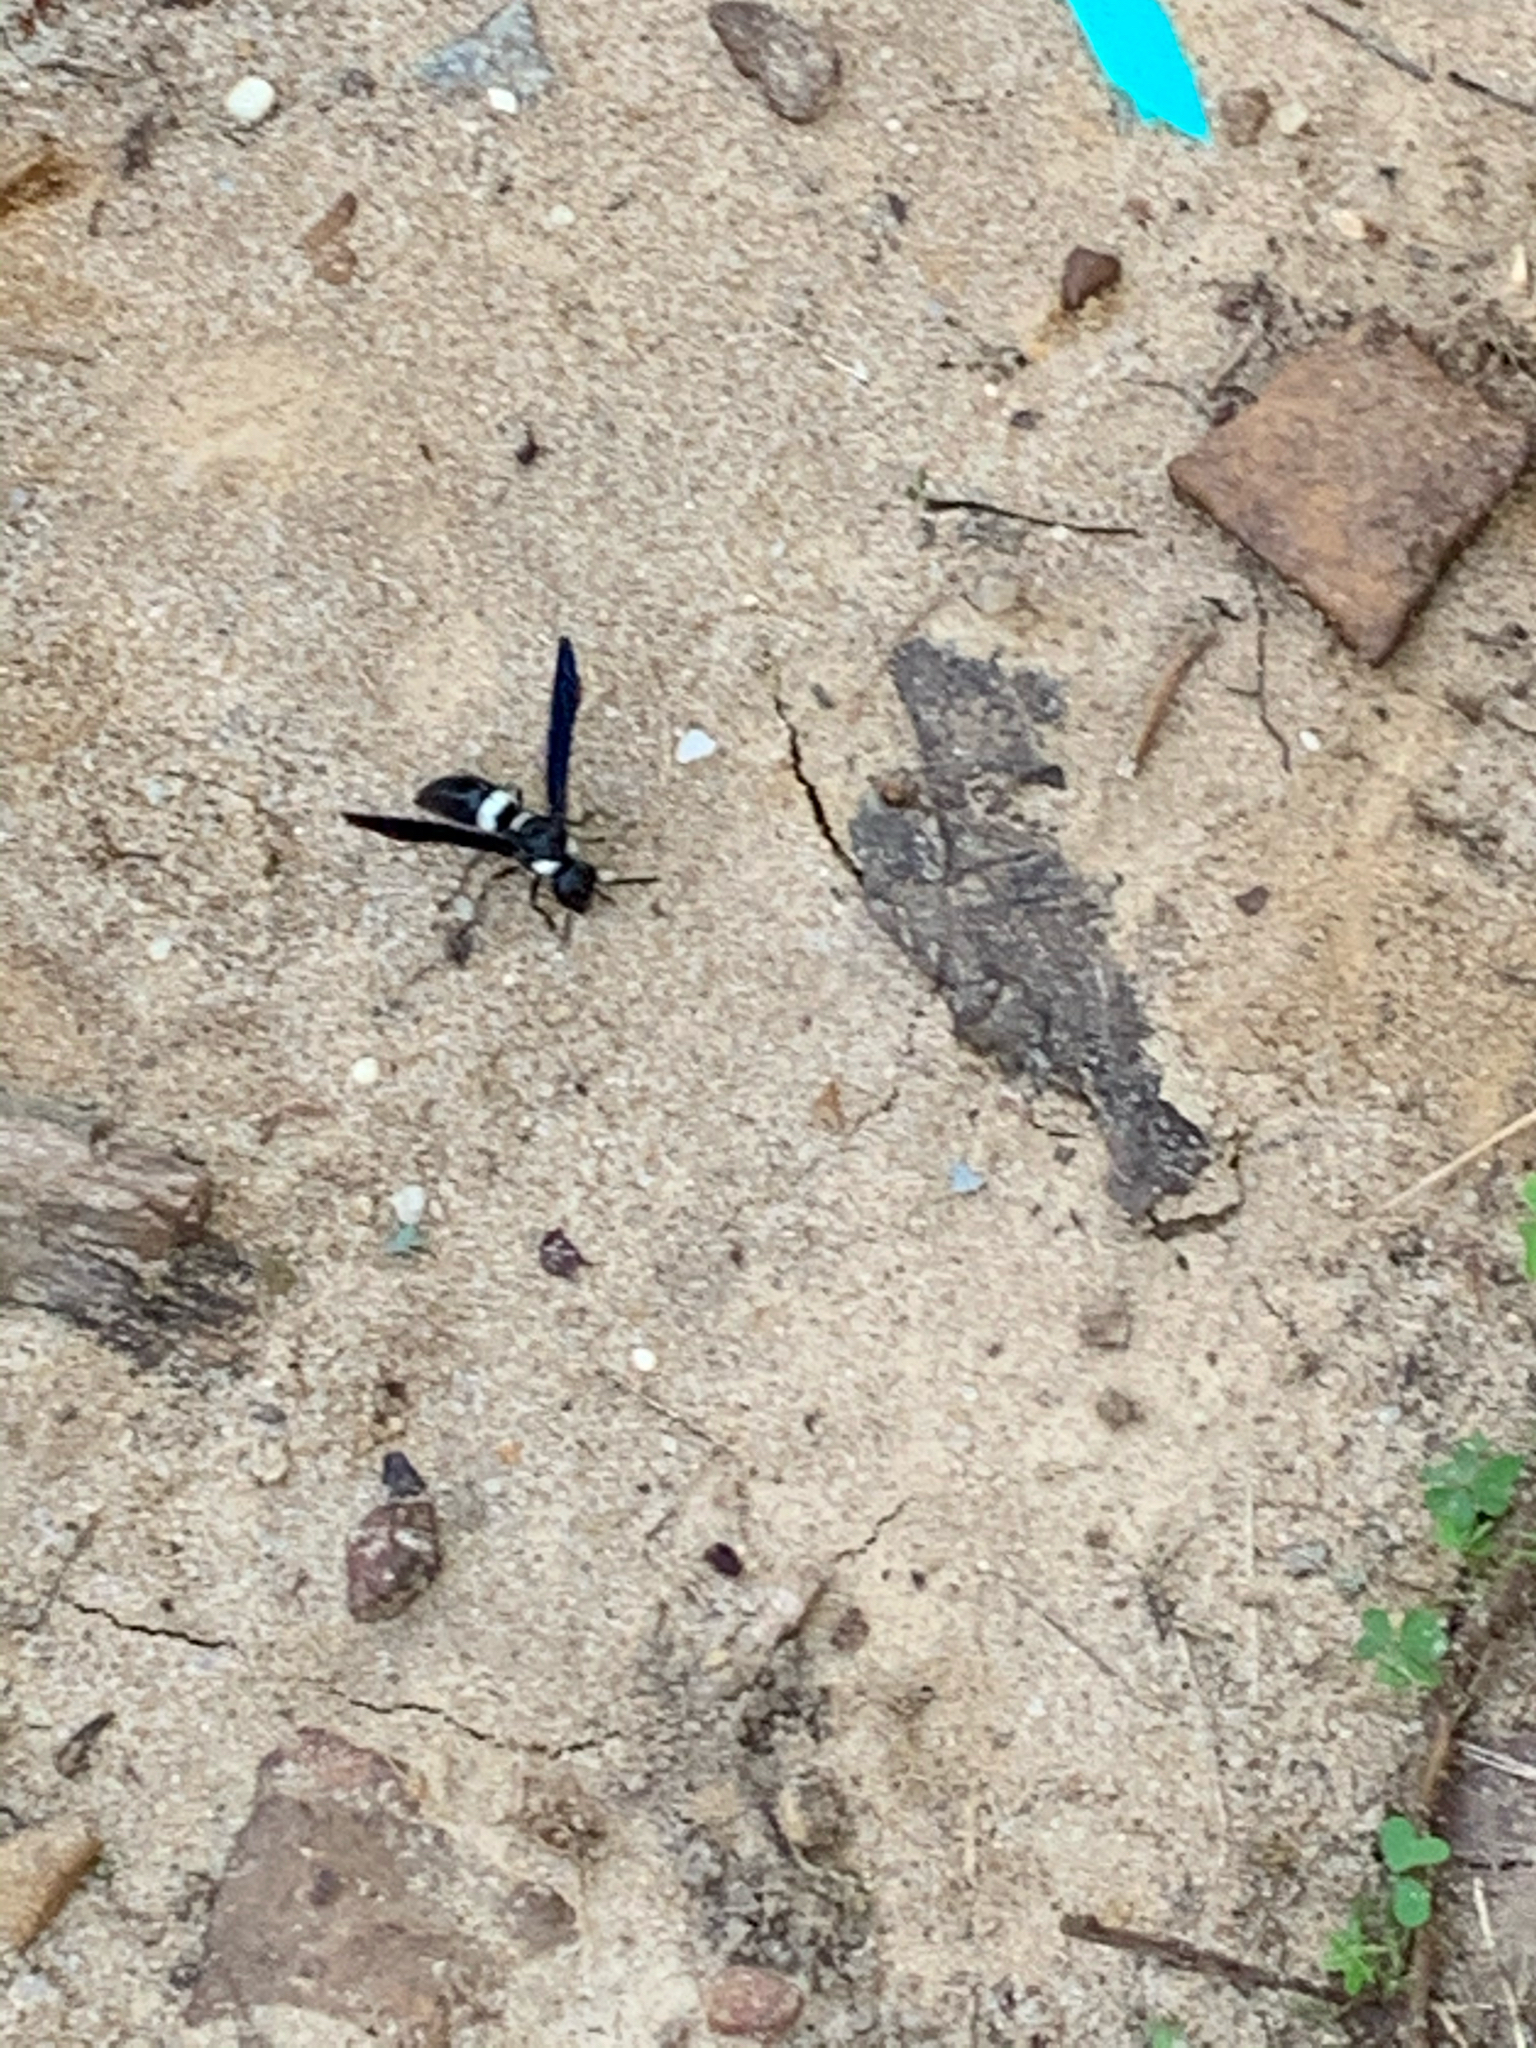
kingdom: Animalia
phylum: Arthropoda
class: Insecta
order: Hymenoptera
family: Eumenidae
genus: Monobia
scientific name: Monobia quadridens
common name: Four-toothed mason wasp
